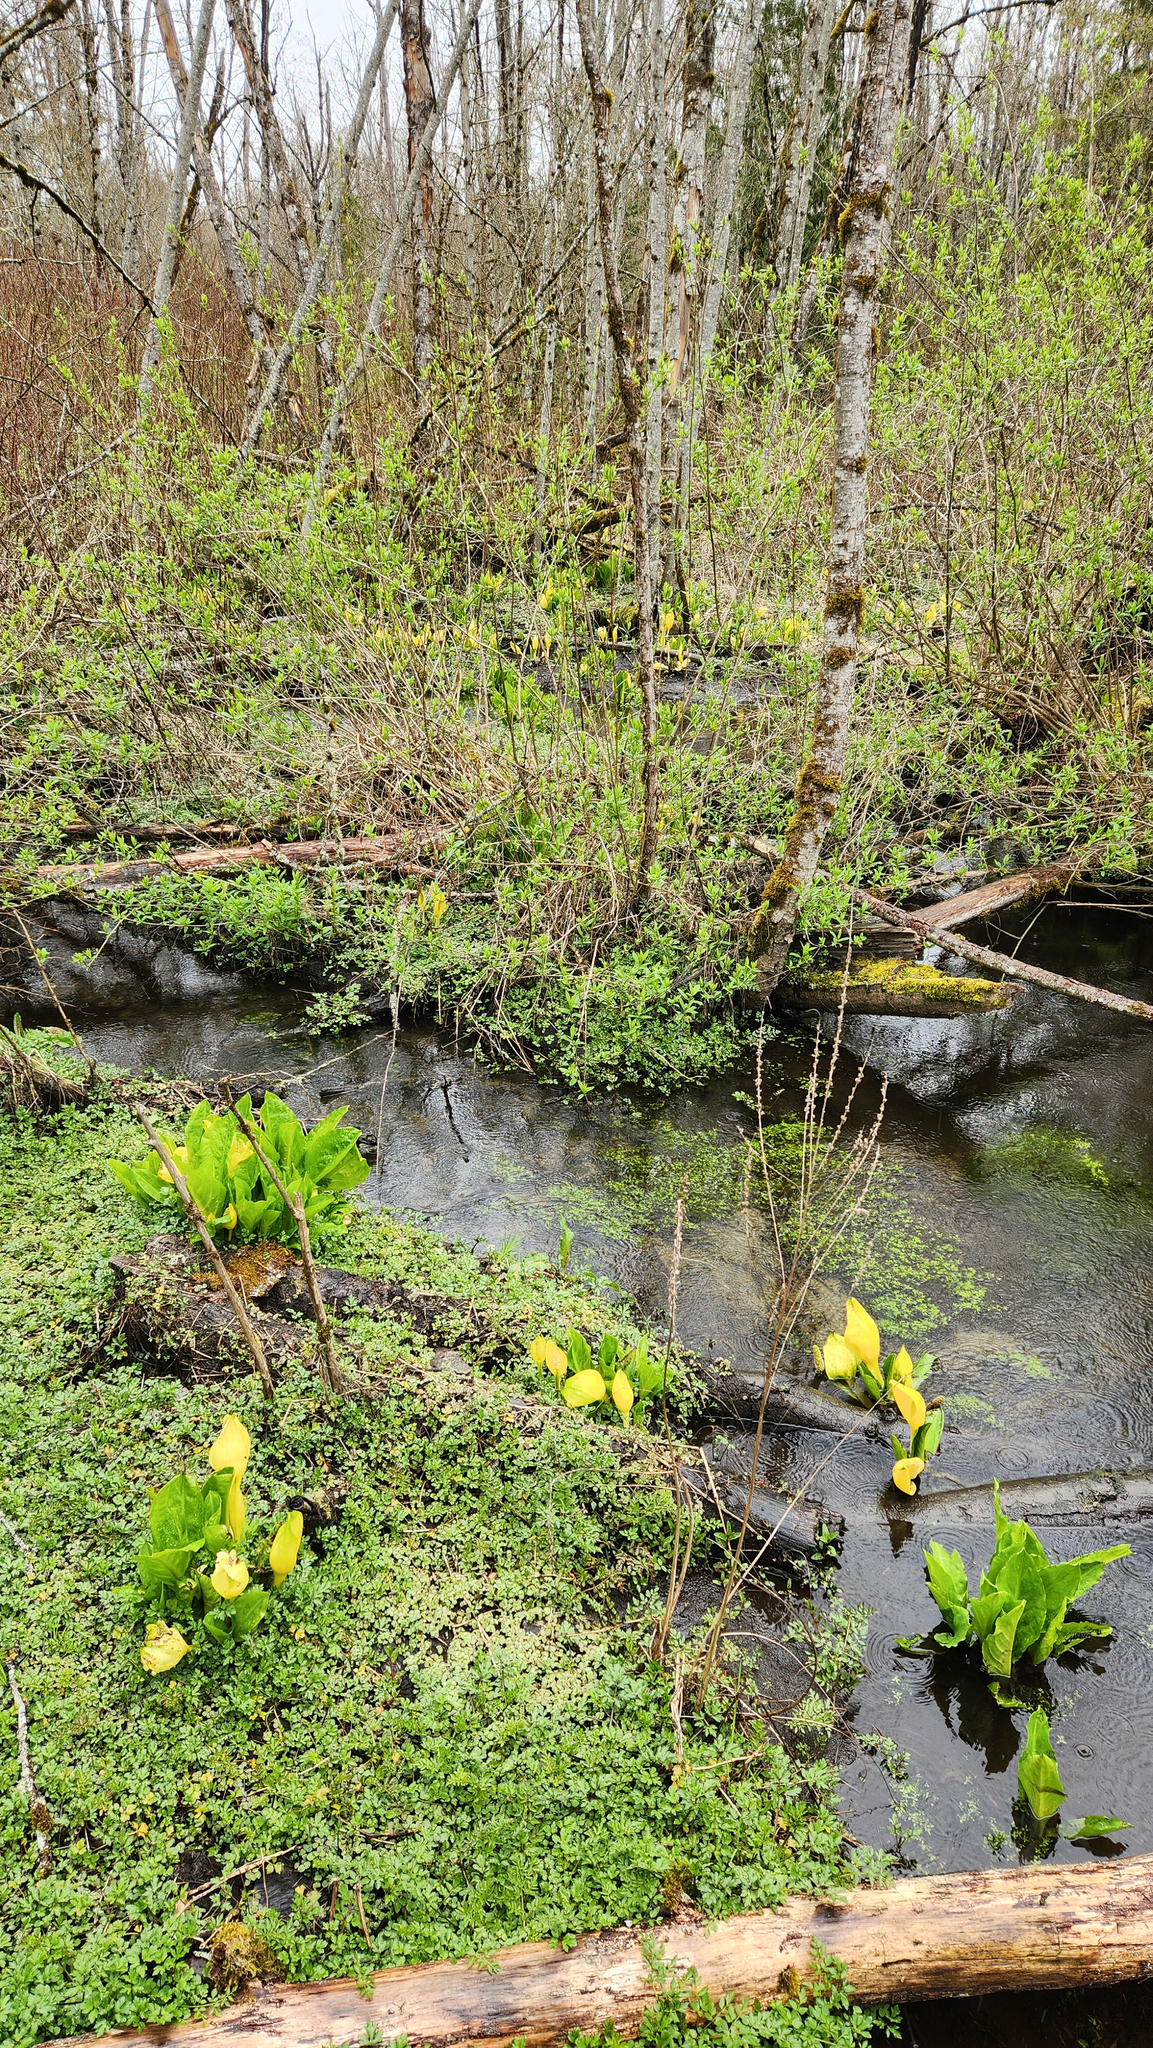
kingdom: Plantae
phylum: Tracheophyta
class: Liliopsida
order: Alismatales
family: Araceae
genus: Lysichiton
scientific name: Lysichiton americanus
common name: American skunk cabbage
